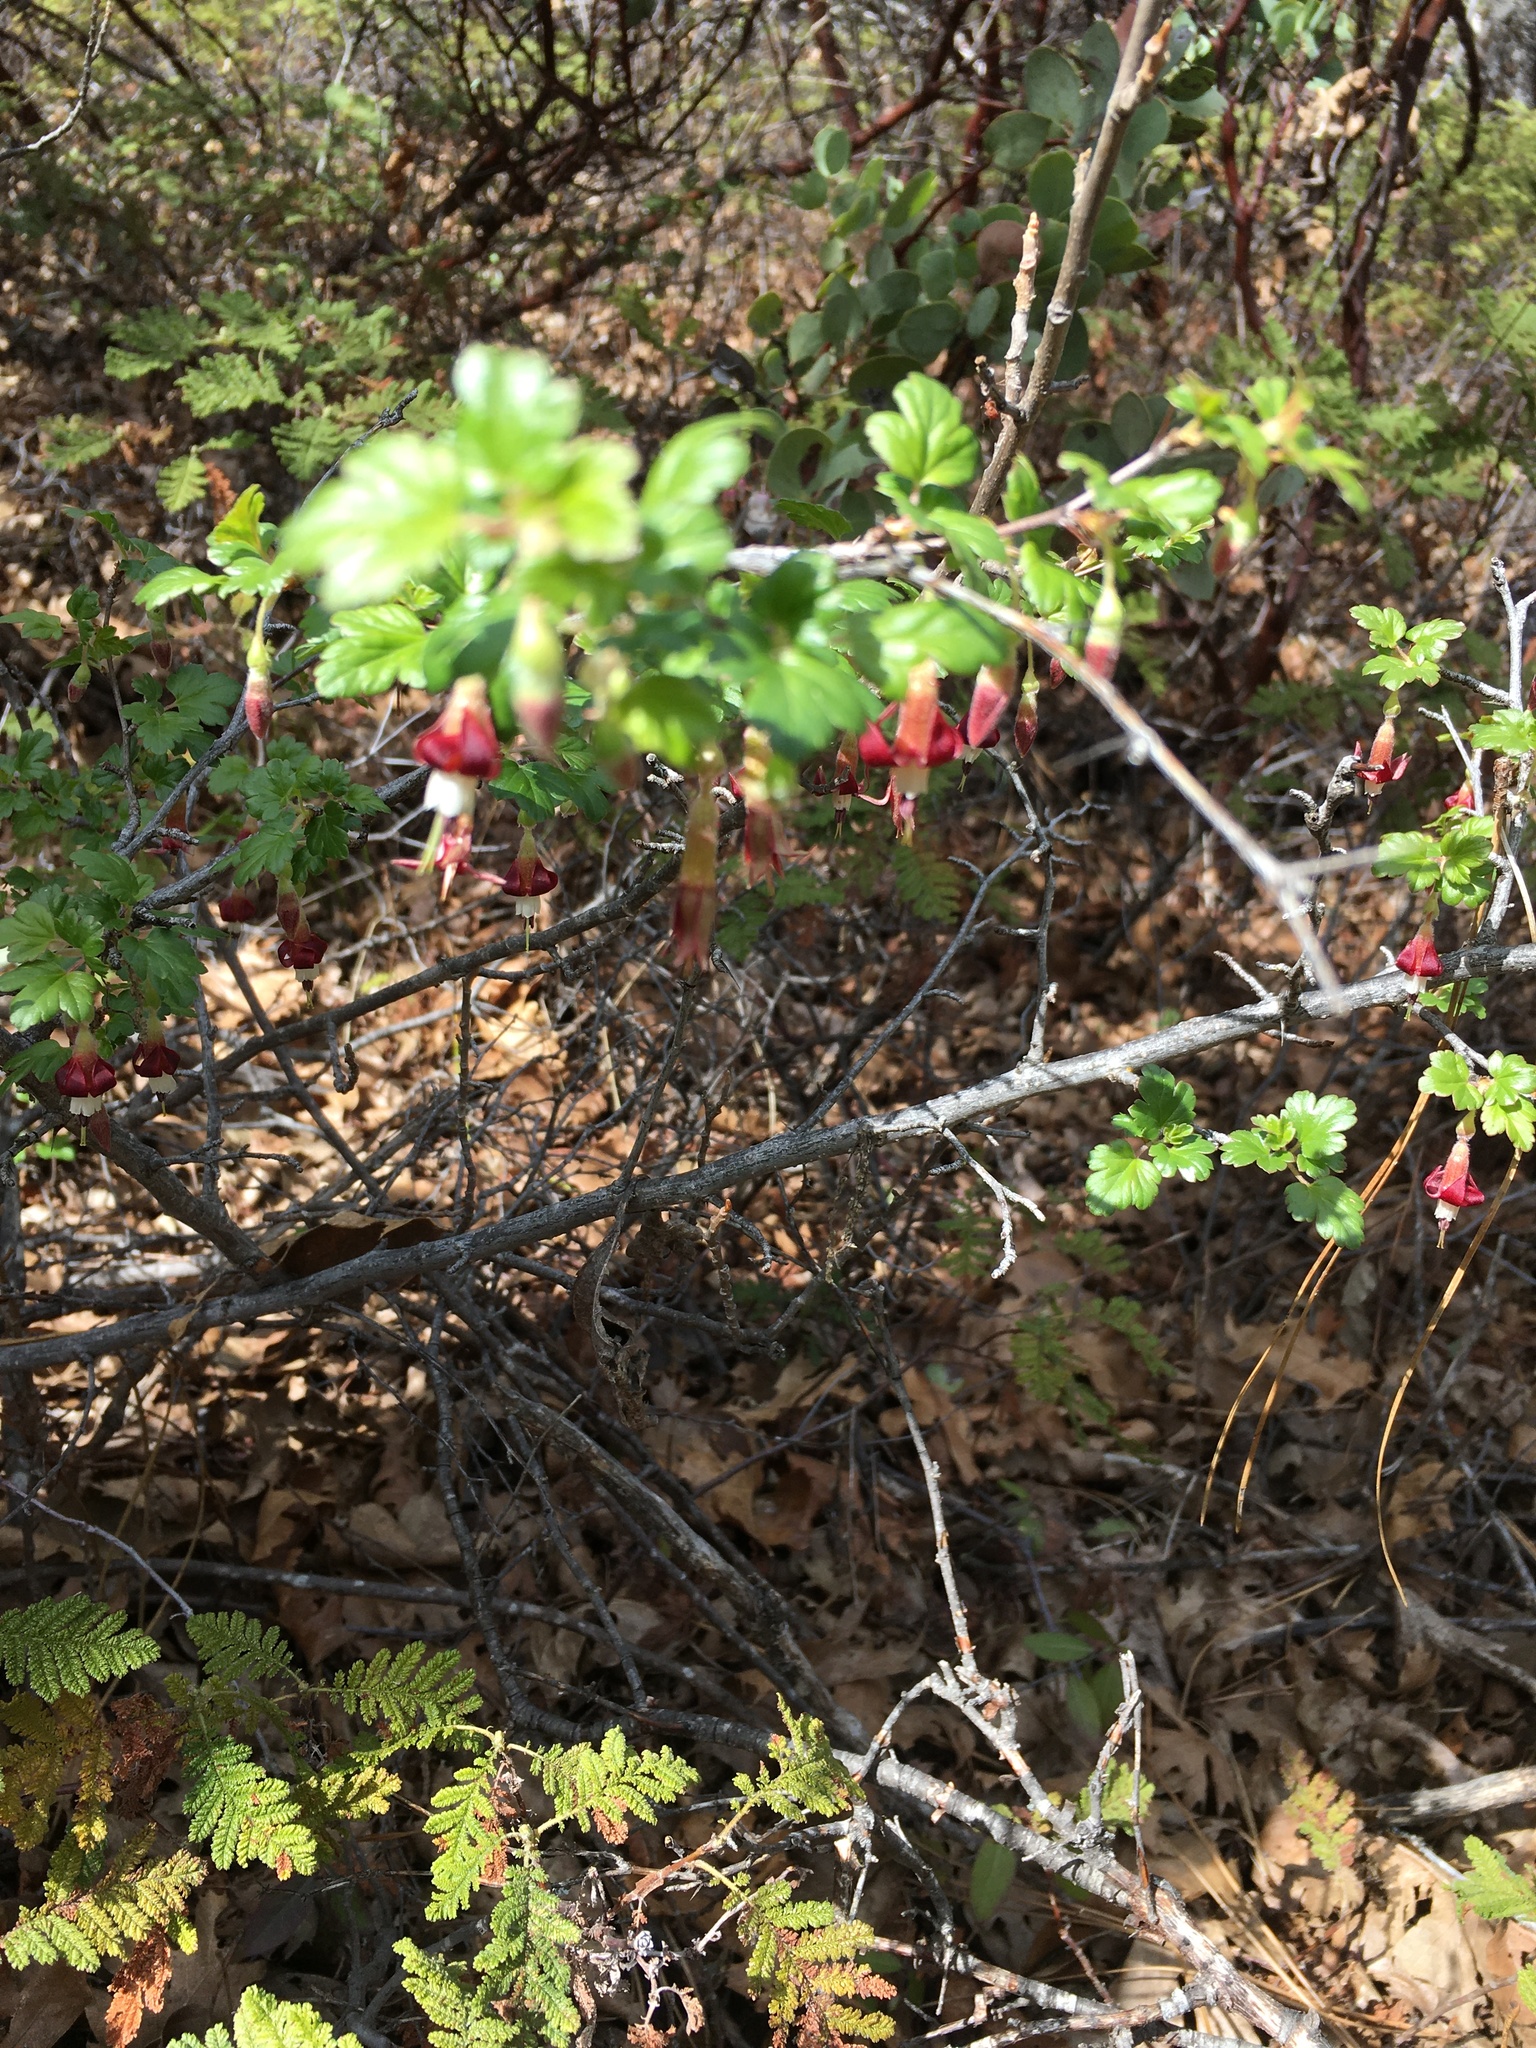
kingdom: Plantae
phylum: Tracheophyta
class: Magnoliopsida
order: Saxifragales
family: Grossulariaceae
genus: Ribes
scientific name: Ribes roezlii
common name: Sierra gooseberry
